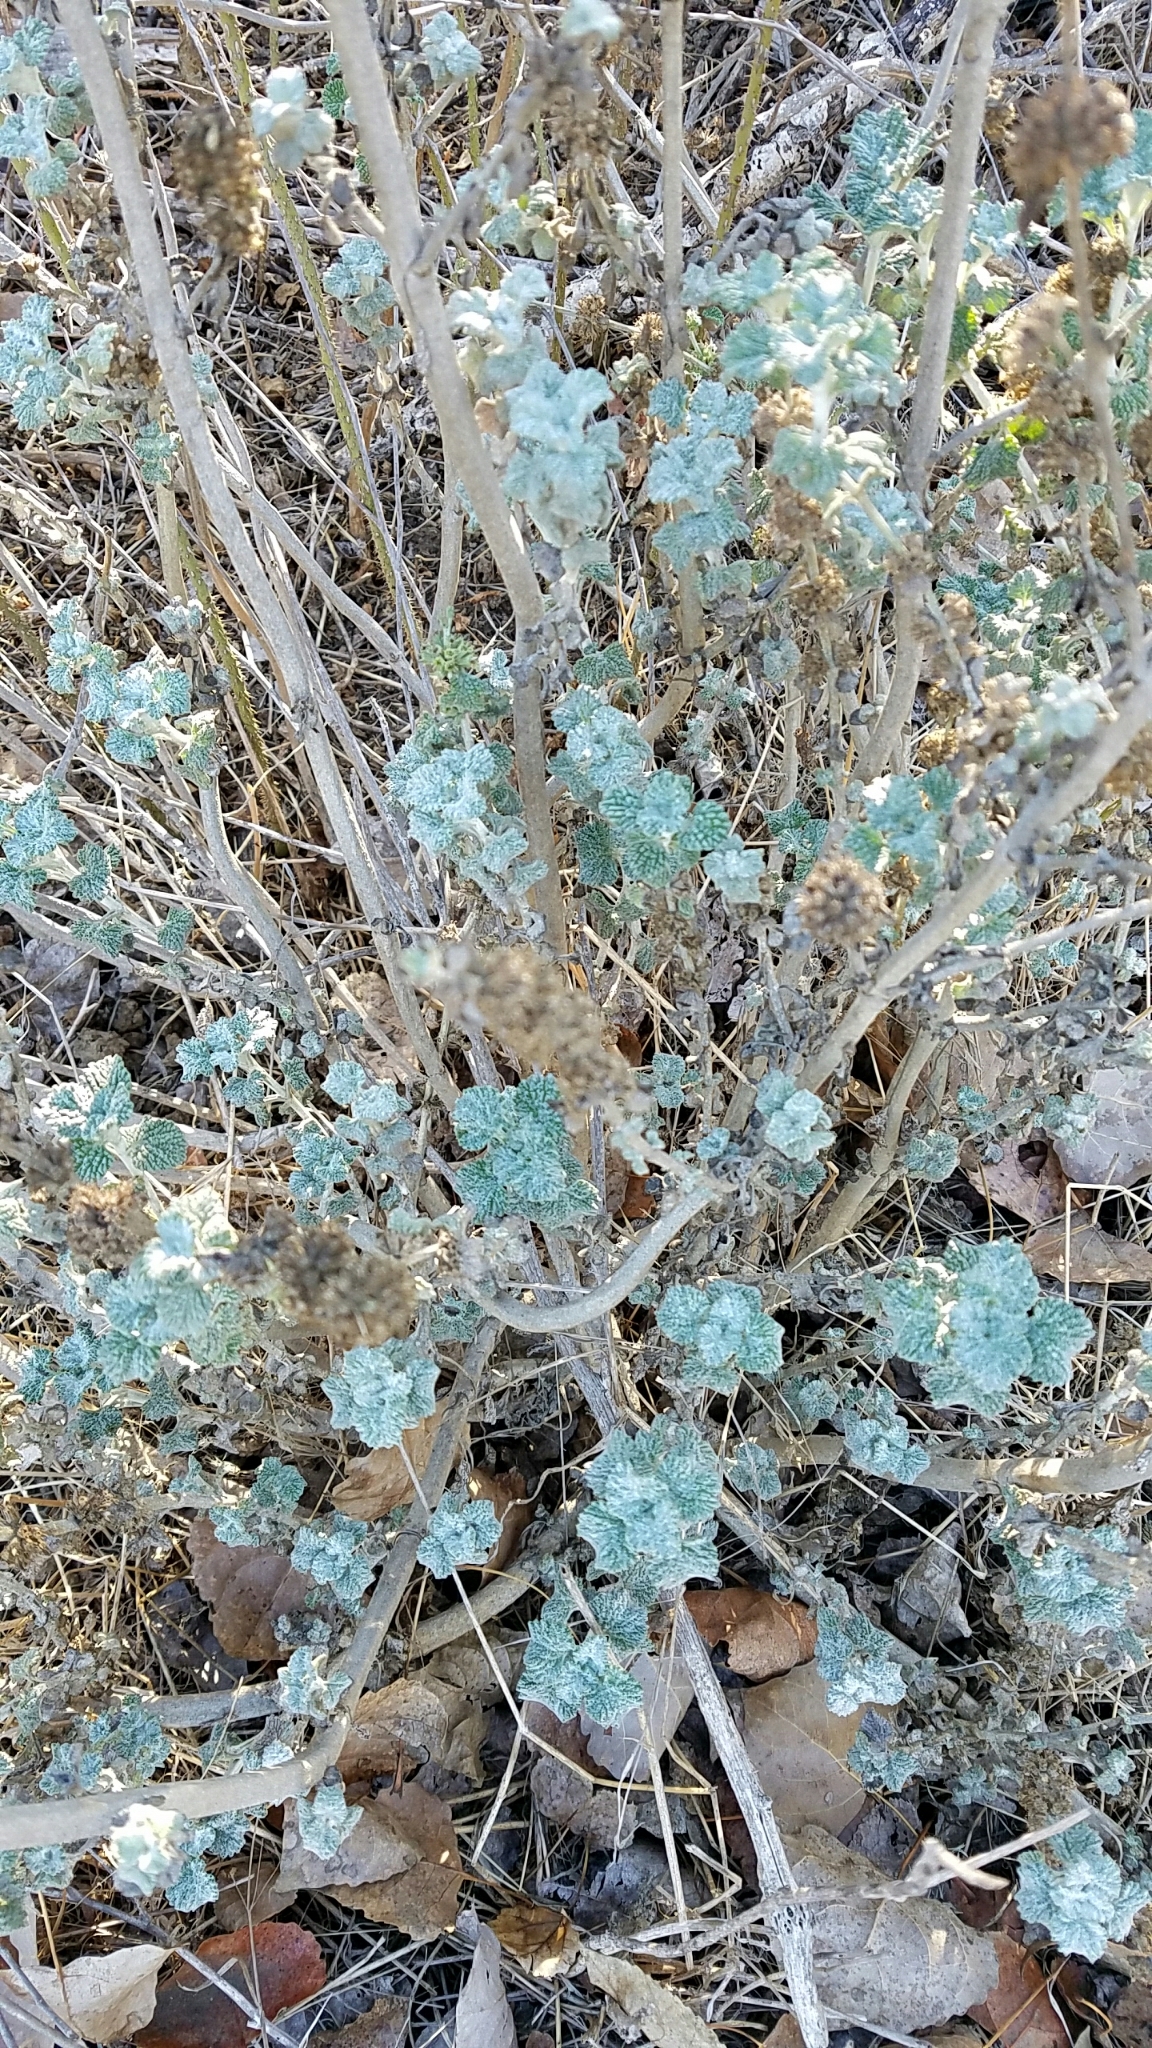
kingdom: Plantae
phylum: Tracheophyta
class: Magnoliopsida
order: Lamiales
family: Lamiaceae
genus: Marrubium
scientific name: Marrubium vulgare
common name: Horehound
